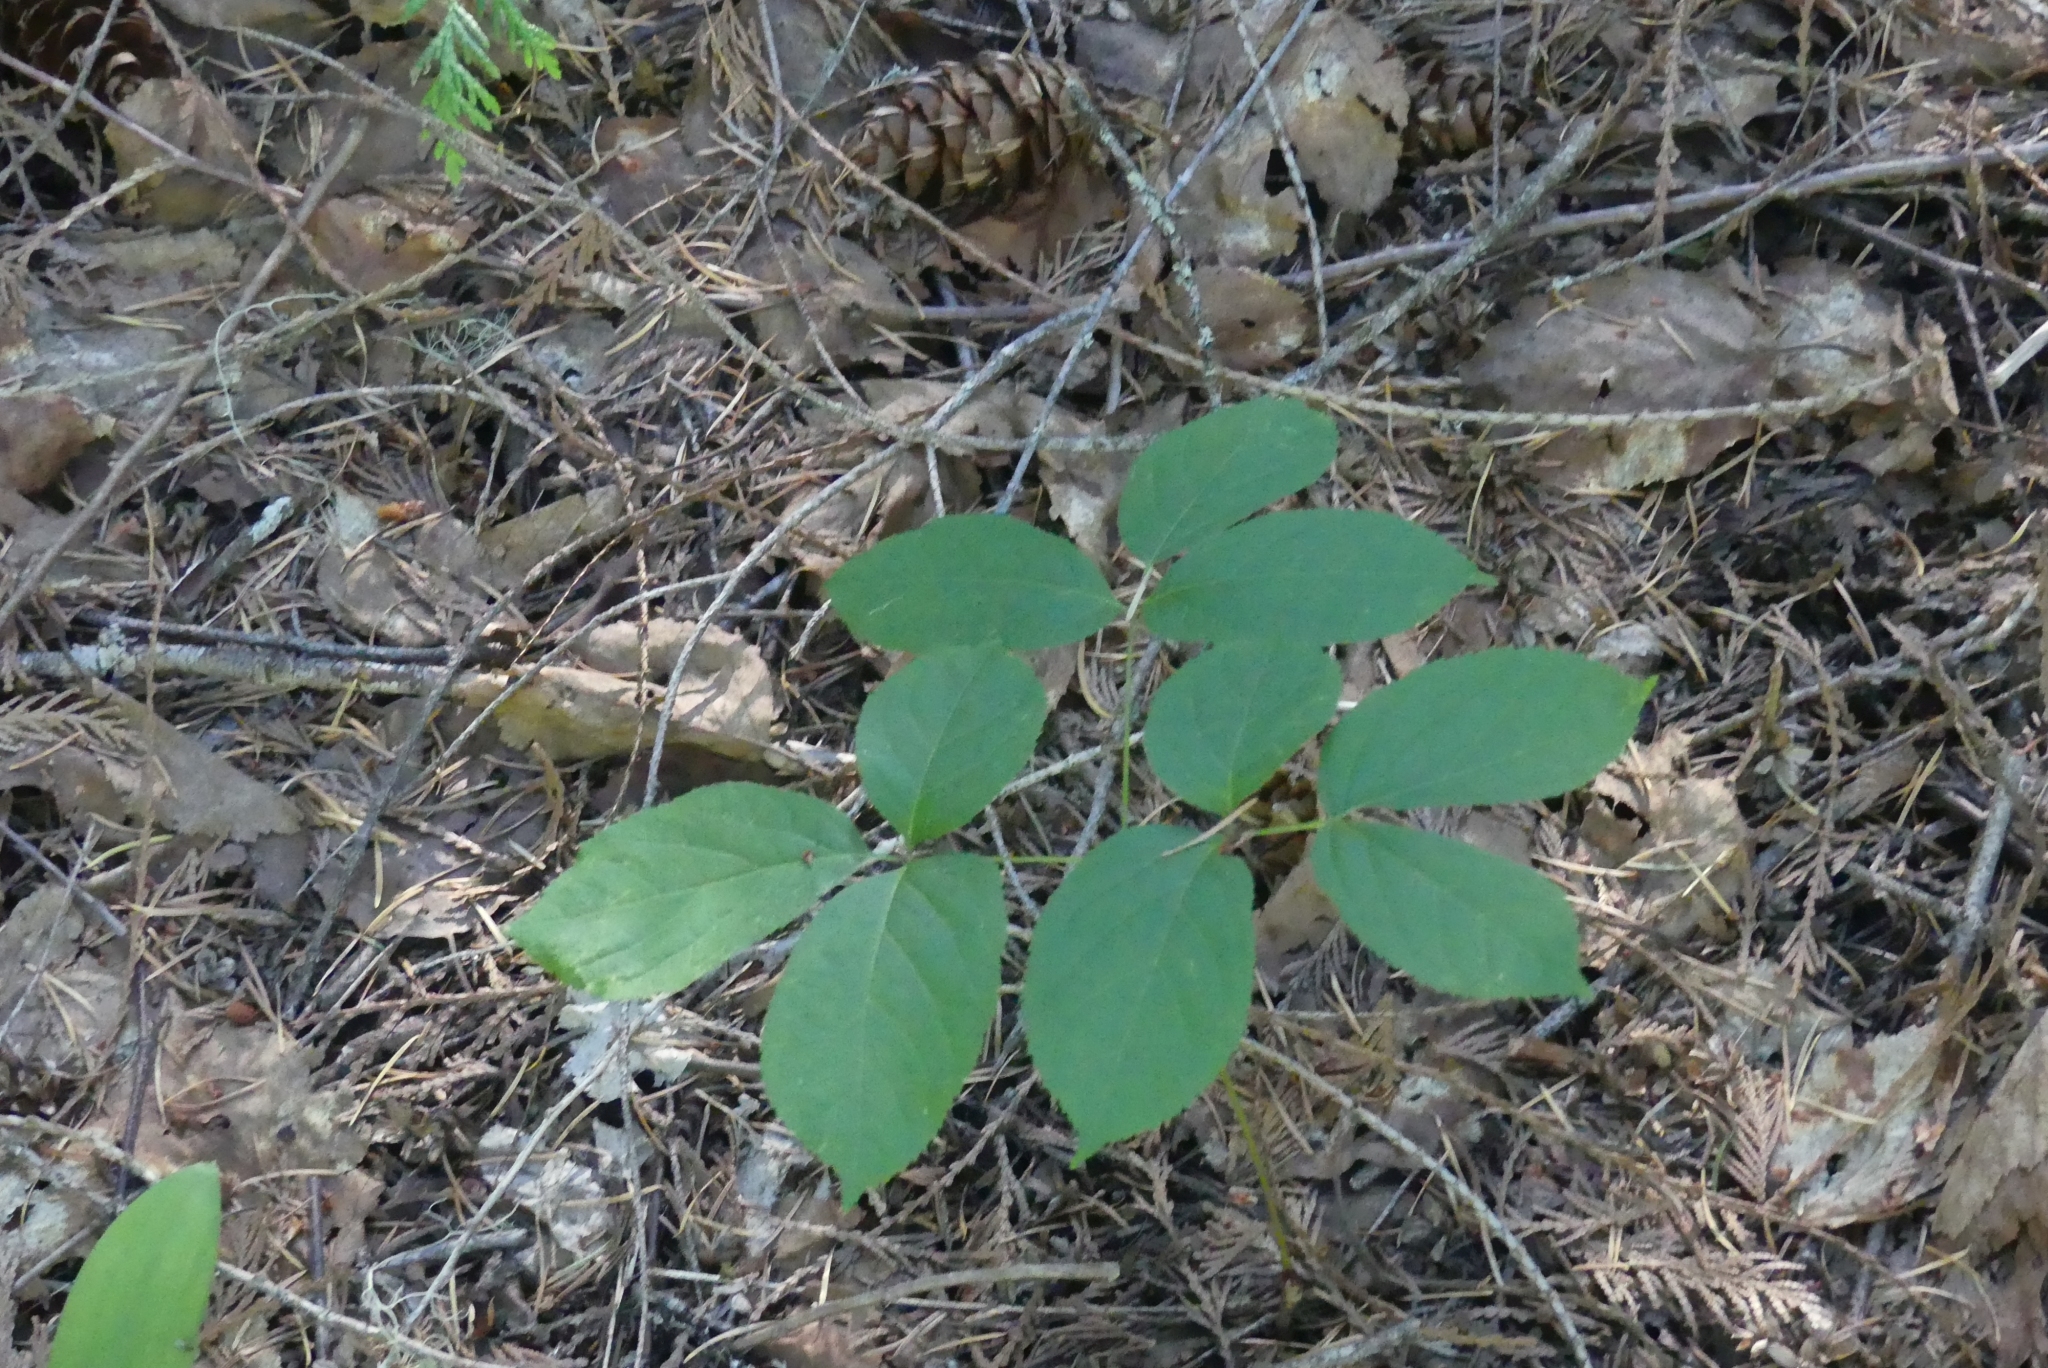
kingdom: Plantae
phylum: Tracheophyta
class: Magnoliopsida
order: Apiales
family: Araliaceae
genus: Aralia
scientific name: Aralia nudicaulis
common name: Wild sarsaparilla
